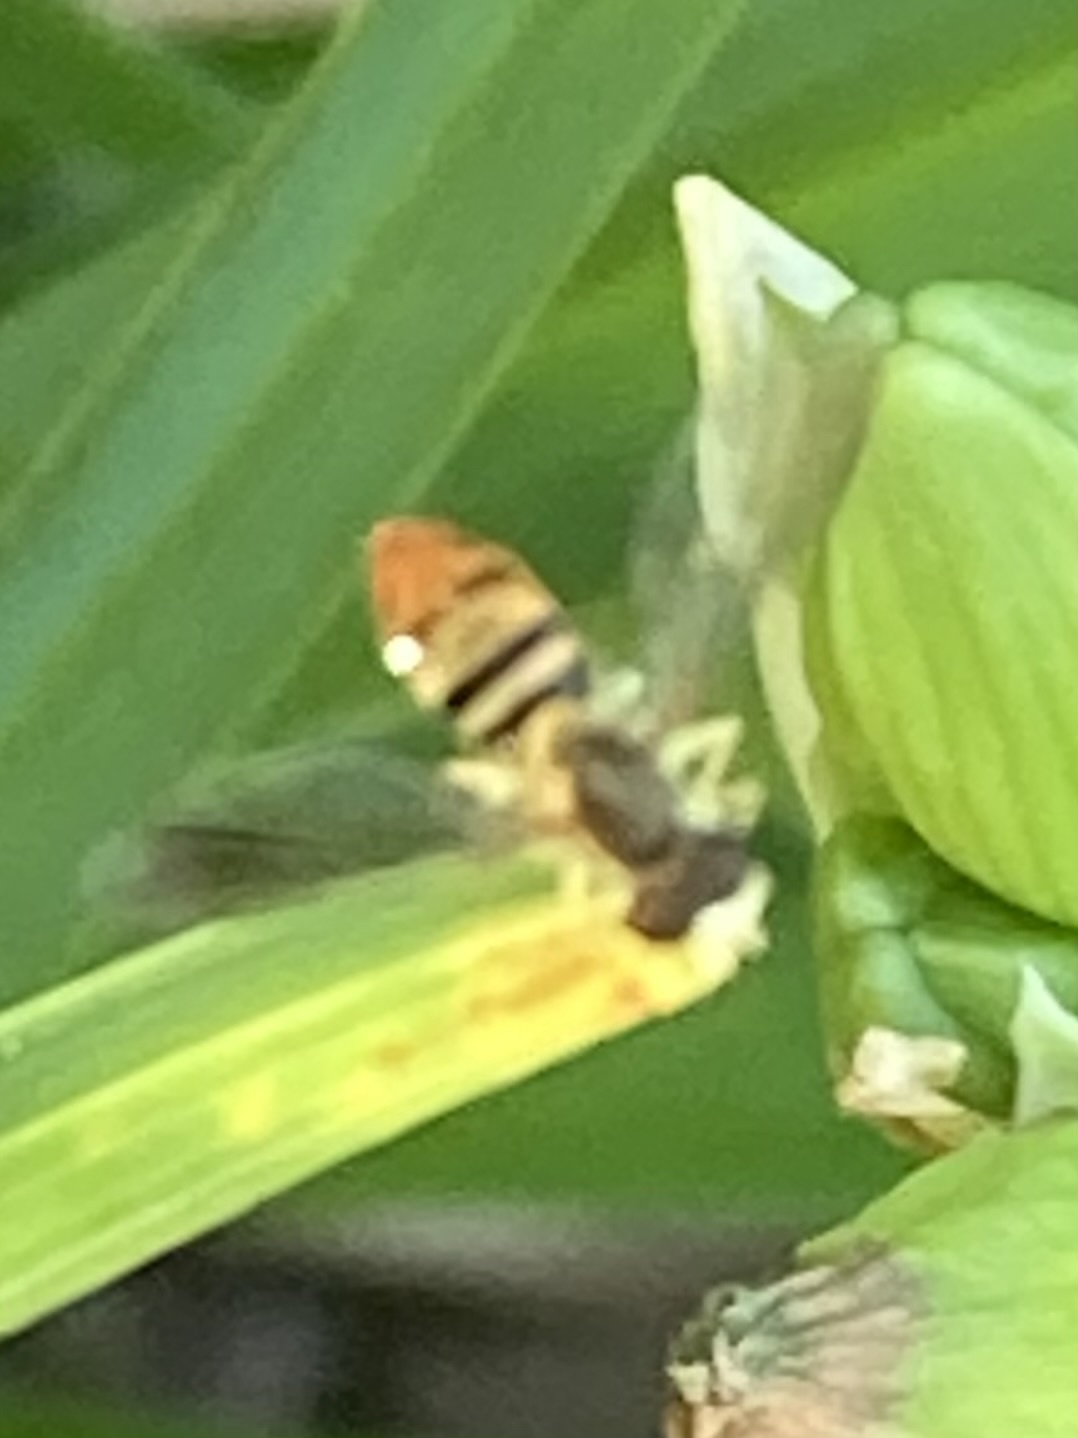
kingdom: Animalia
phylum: Arthropoda
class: Insecta
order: Diptera
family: Syrphidae
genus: Toxomerus
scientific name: Toxomerus marginatus
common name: Syrphid fly
